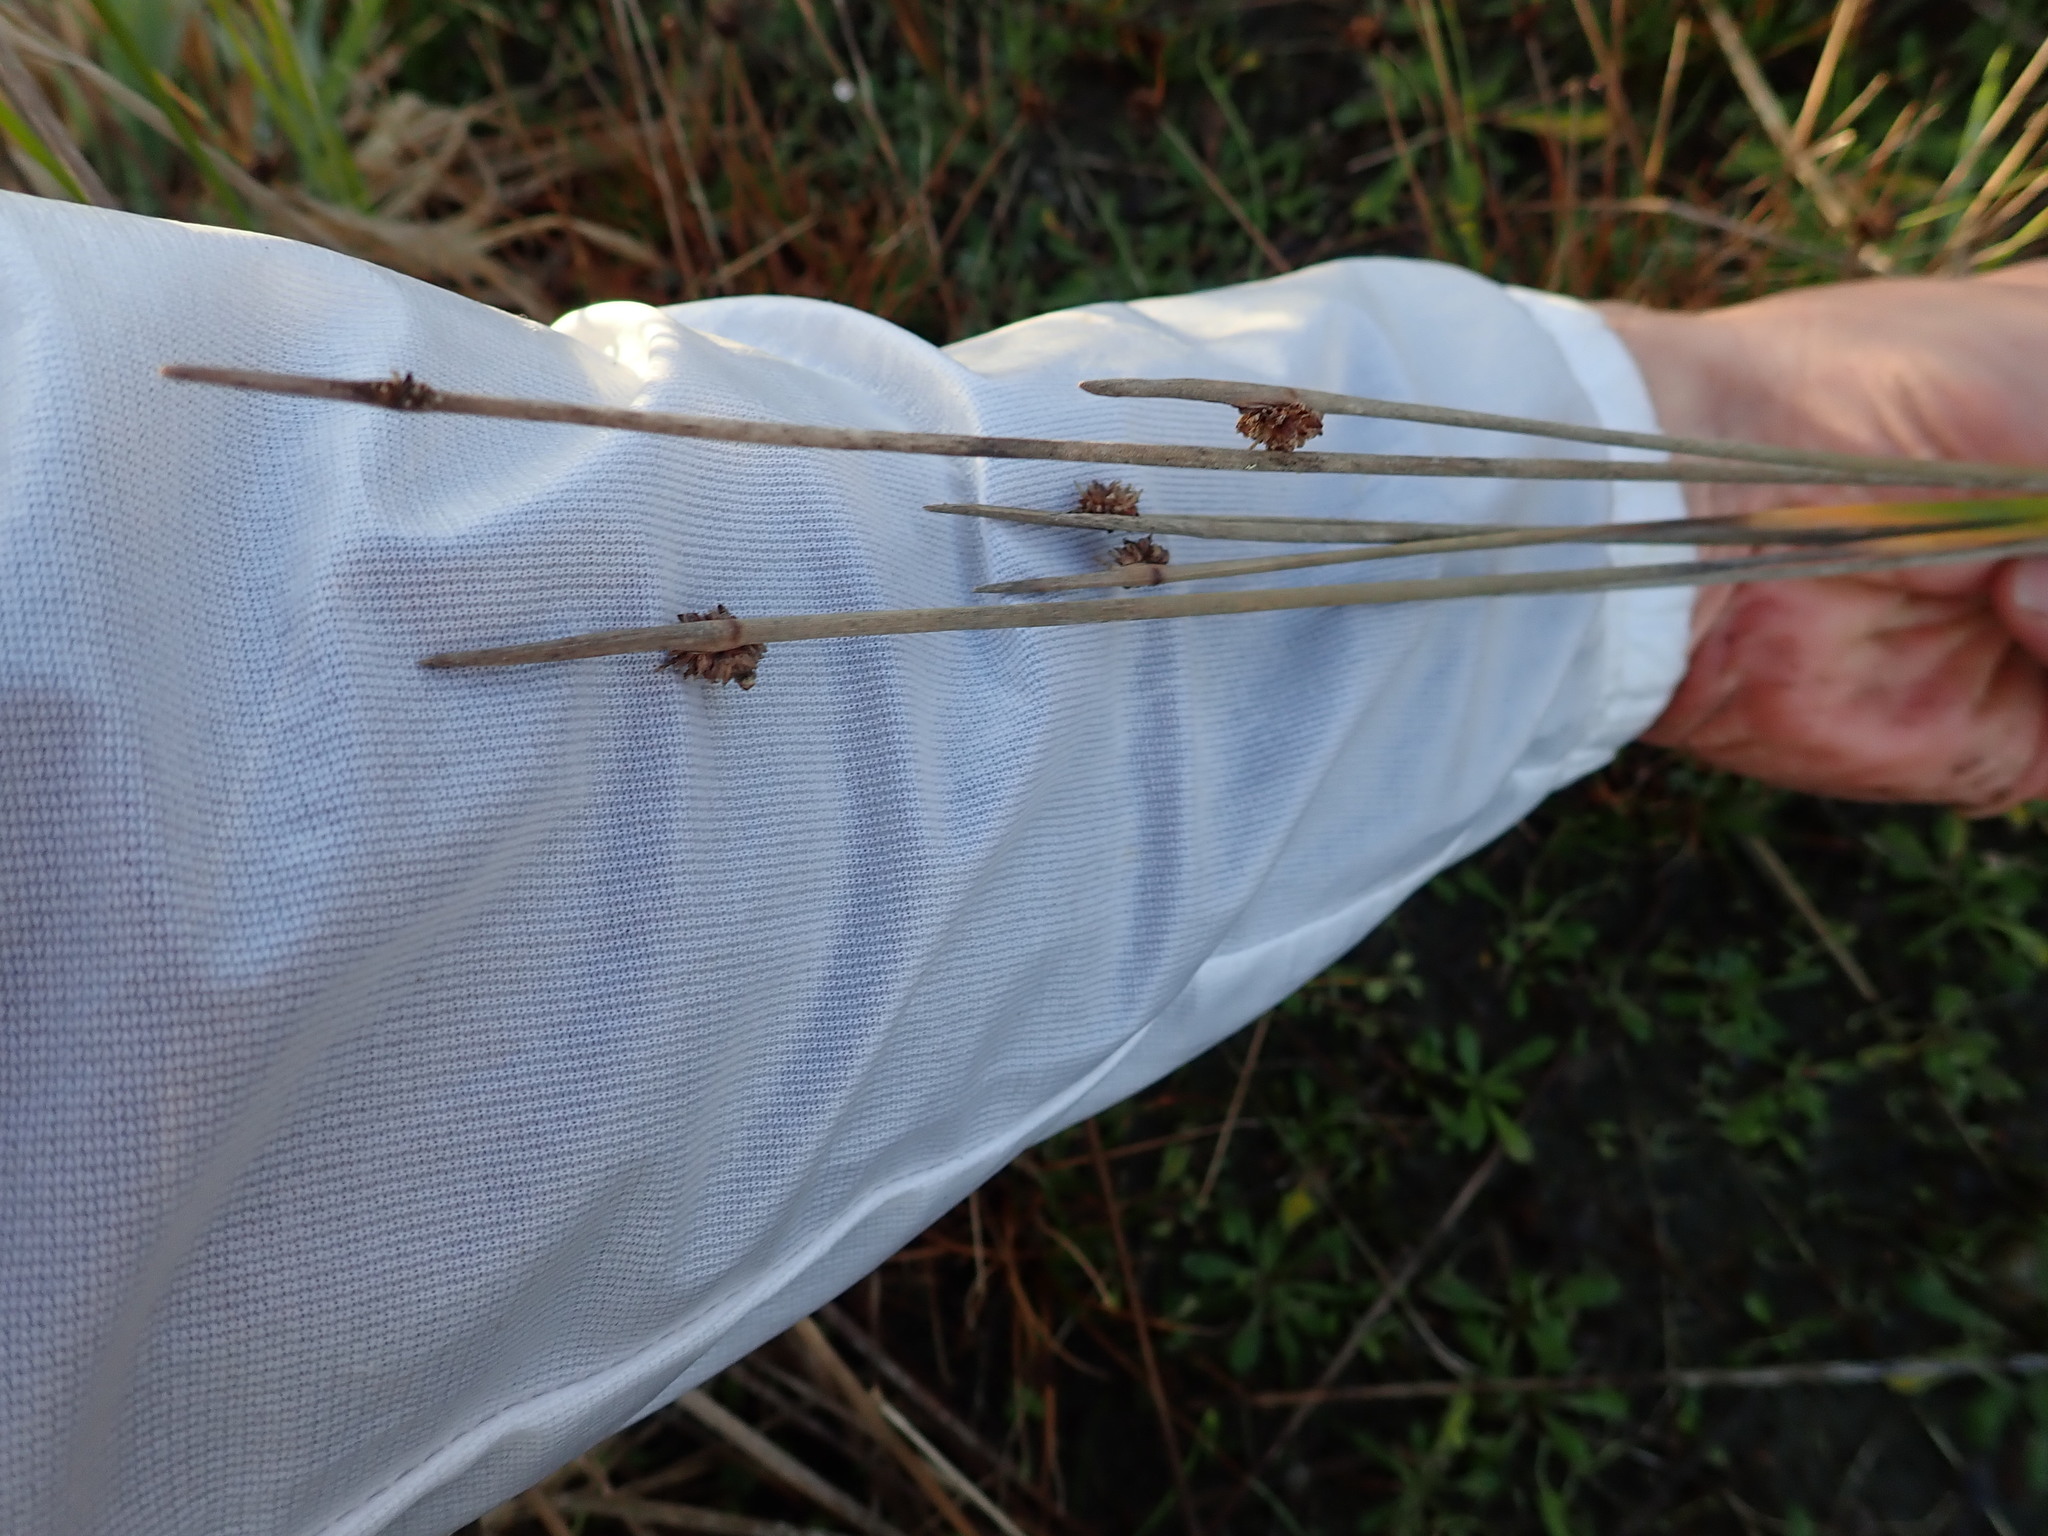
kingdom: Plantae
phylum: Tracheophyta
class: Liliopsida
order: Poales
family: Cyperaceae
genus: Ficinia
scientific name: Ficinia nodosa
